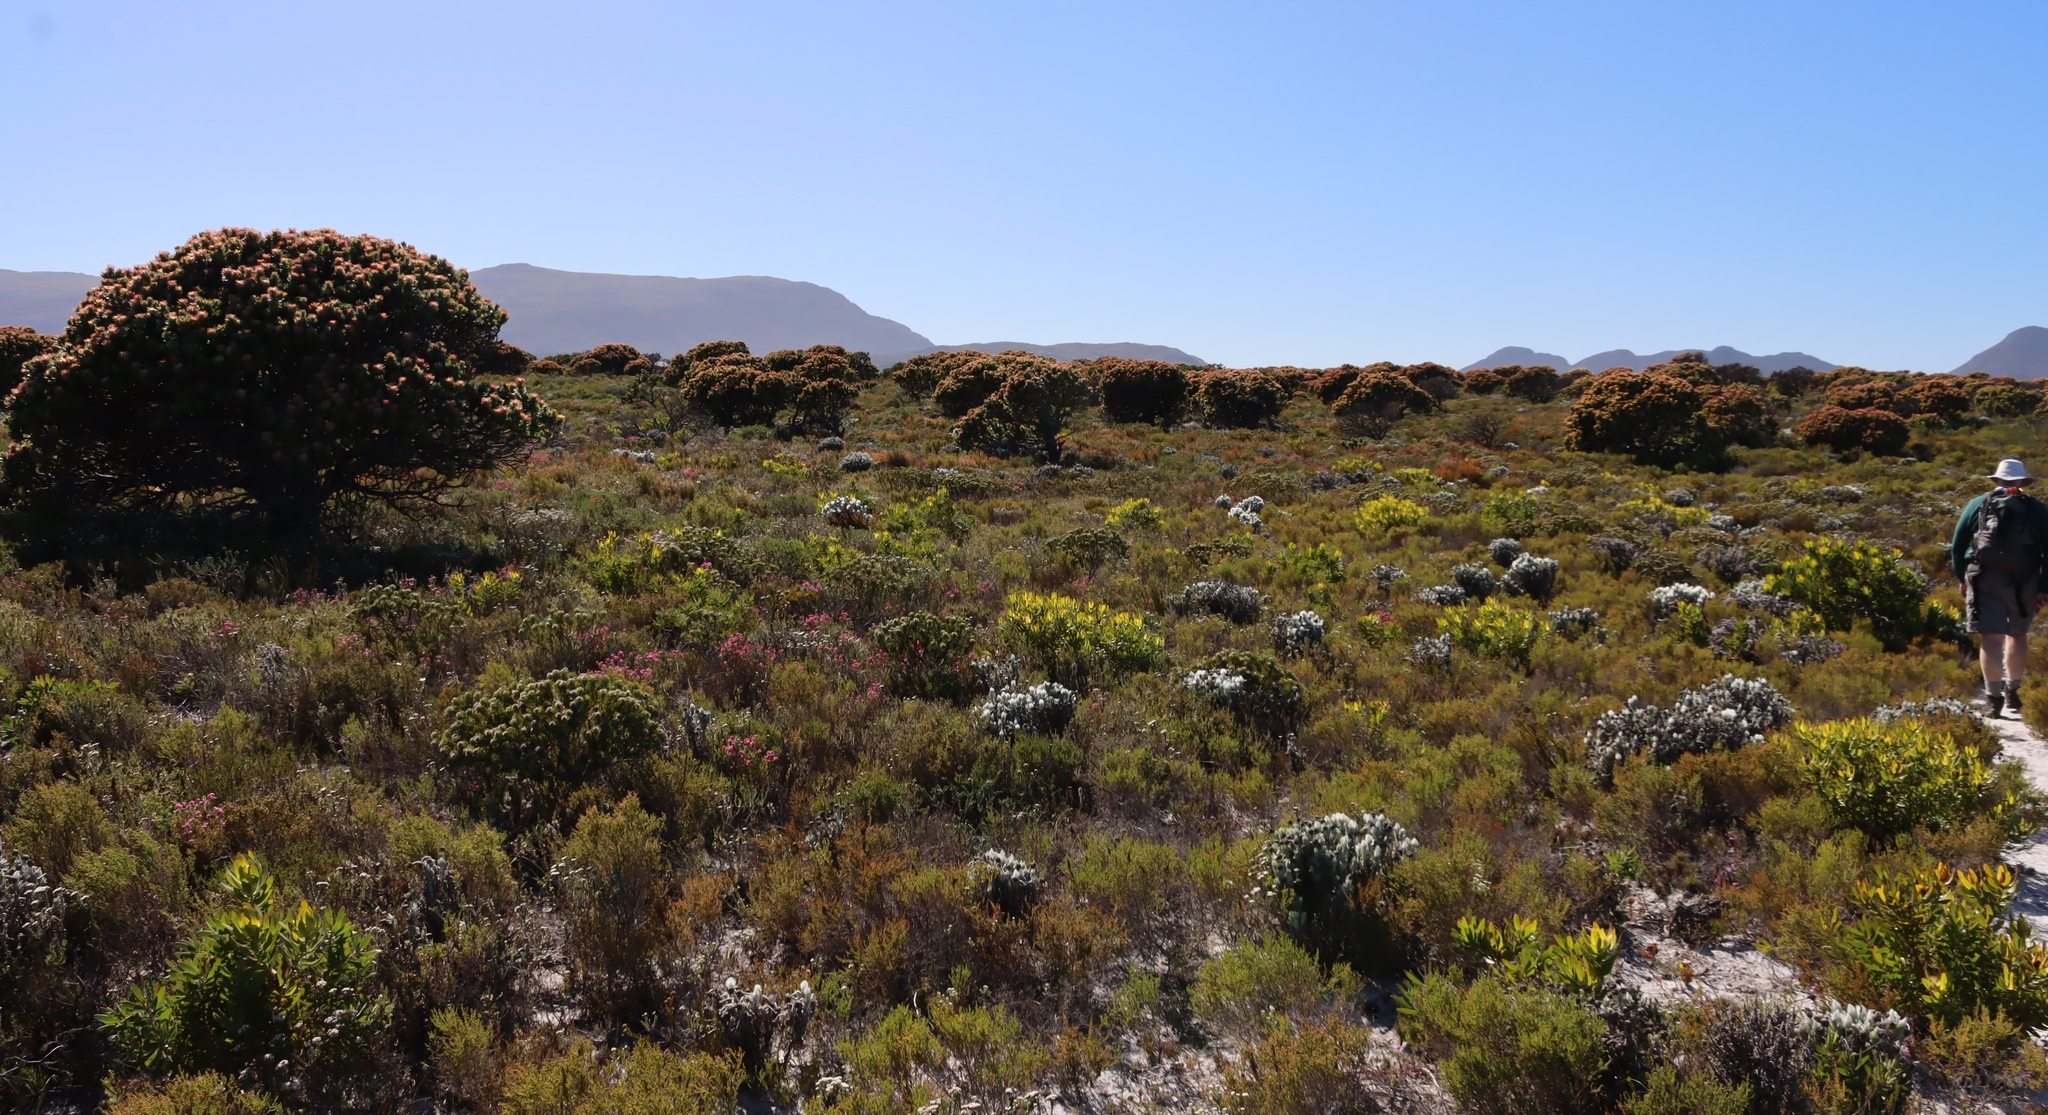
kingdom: Plantae
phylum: Tracheophyta
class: Magnoliopsida
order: Proteales
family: Proteaceae
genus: Leucadendron
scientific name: Leucadendron laureolum
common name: Golden sunshinebush
